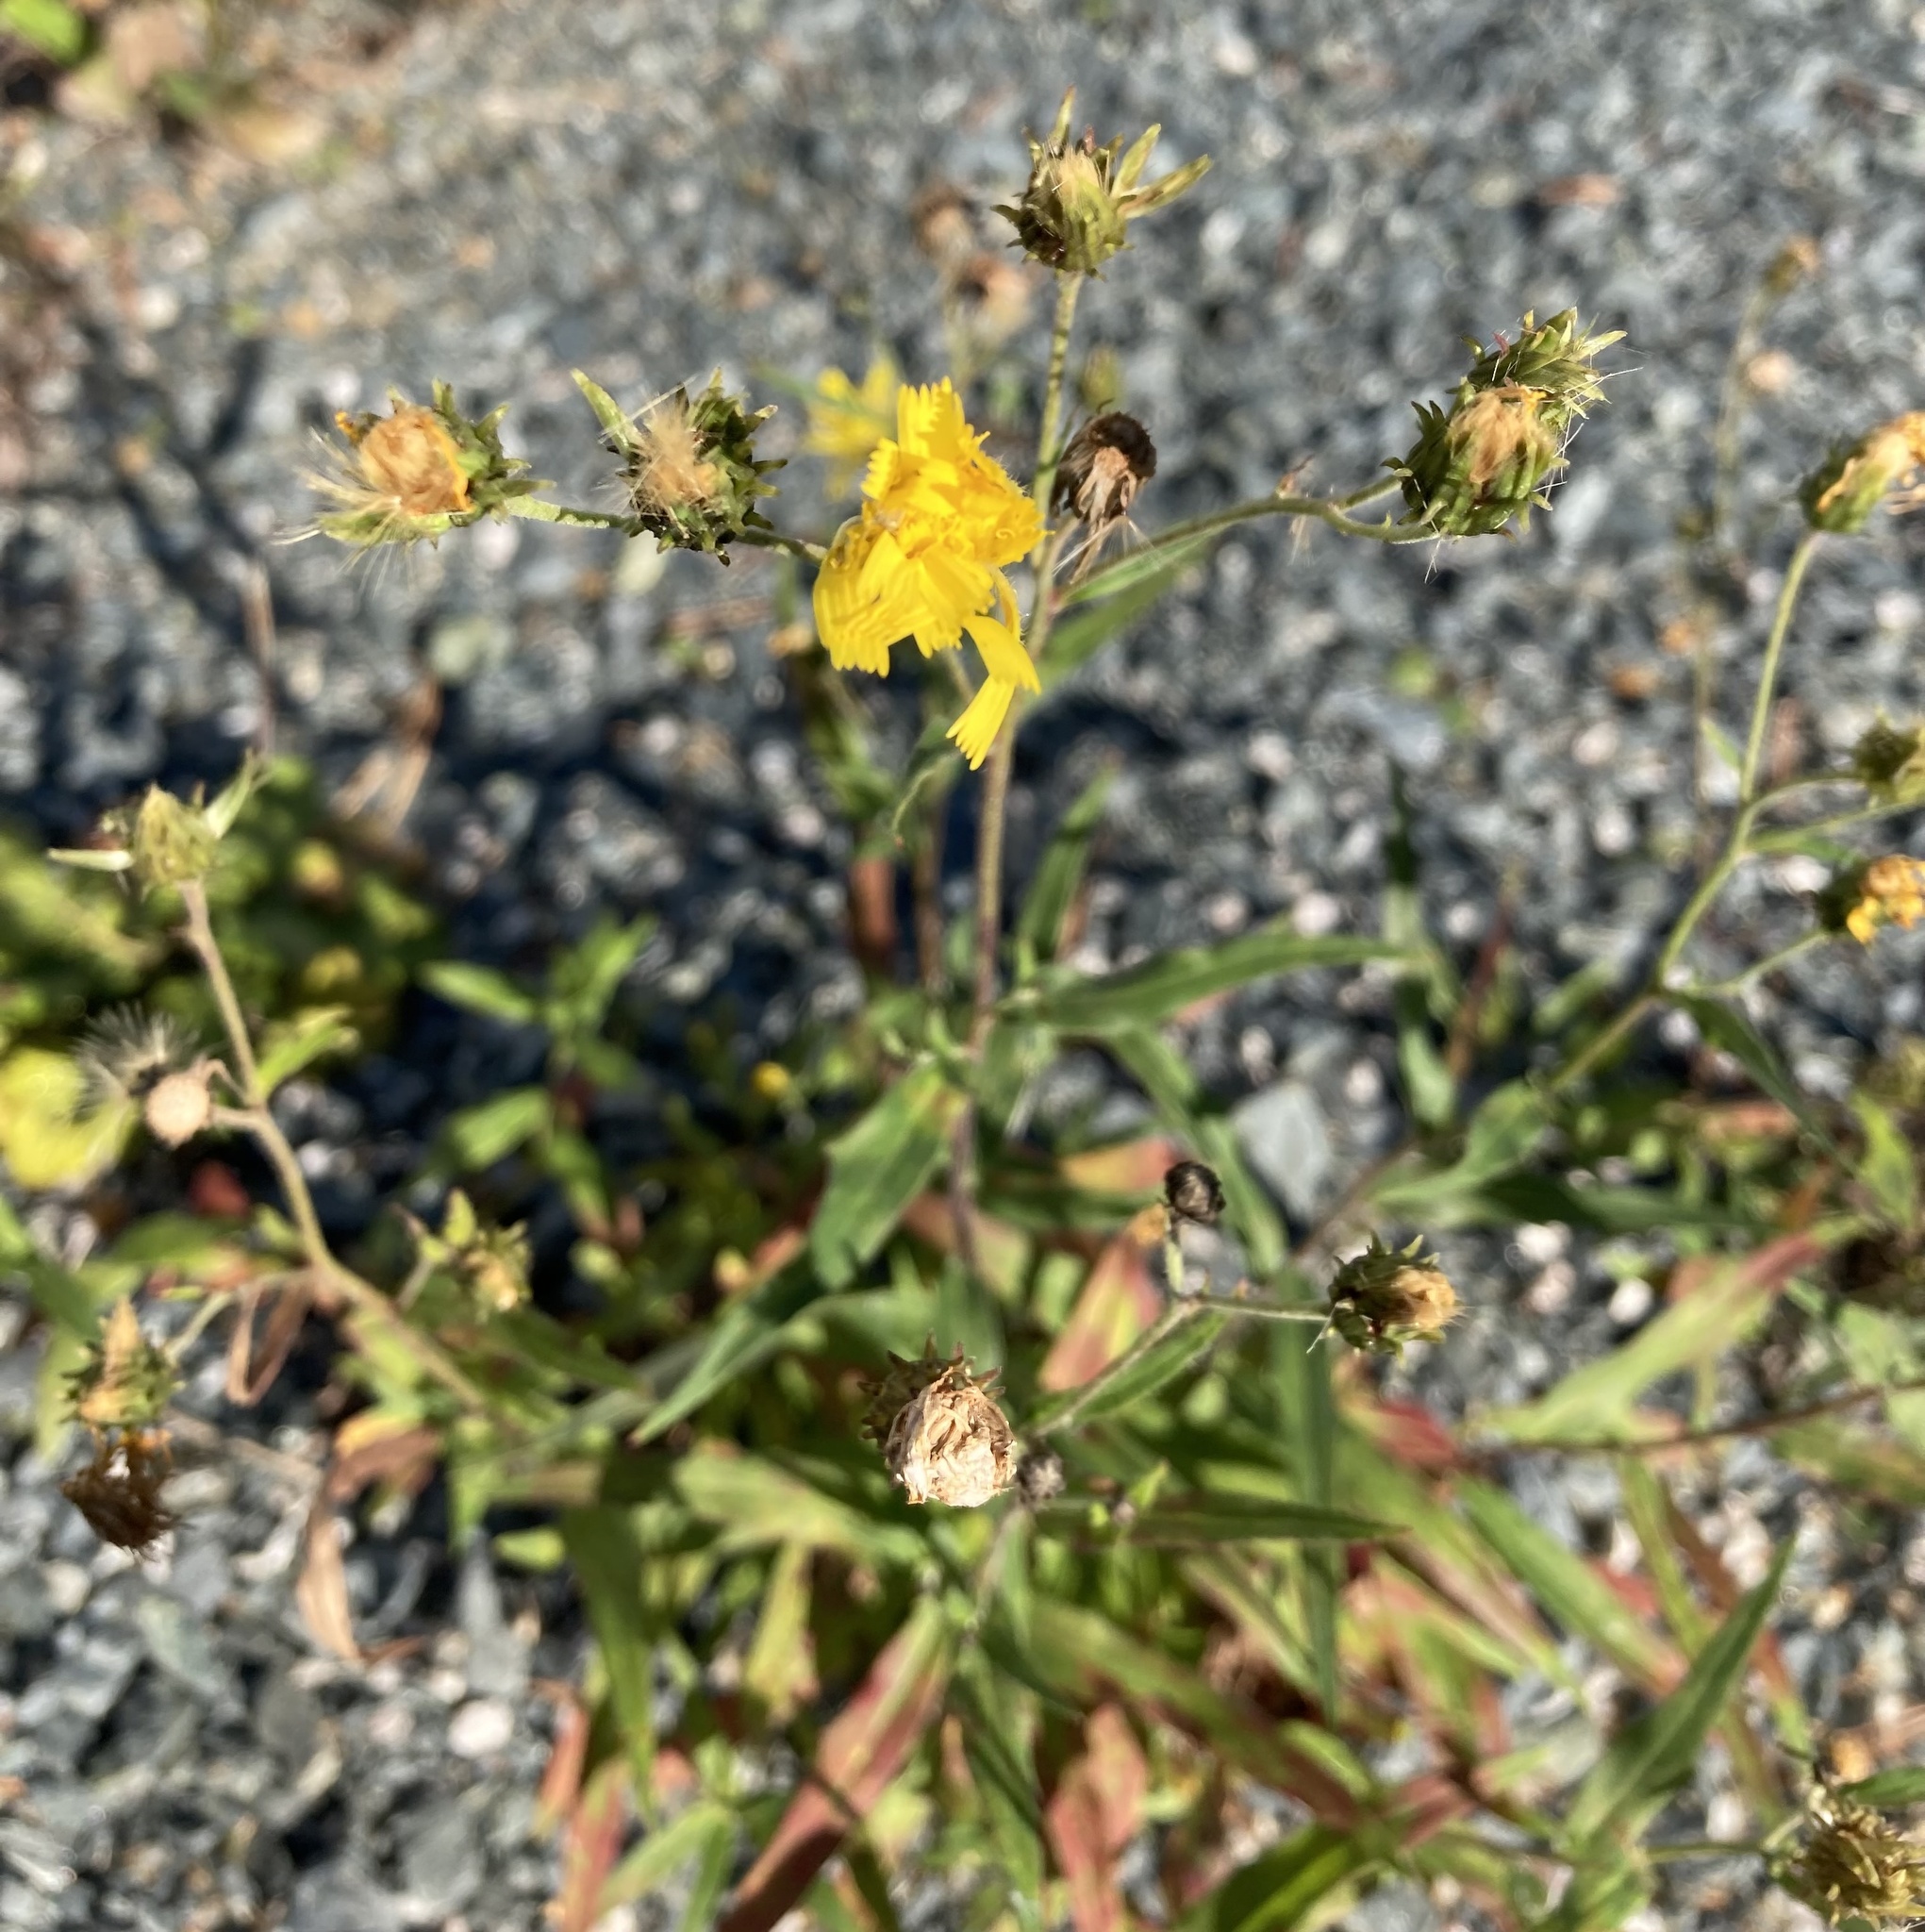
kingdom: Plantae
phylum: Tracheophyta
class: Magnoliopsida
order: Asterales
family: Asteraceae
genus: Hieracium
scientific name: Hieracium umbellatum
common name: Northern hawkweed
